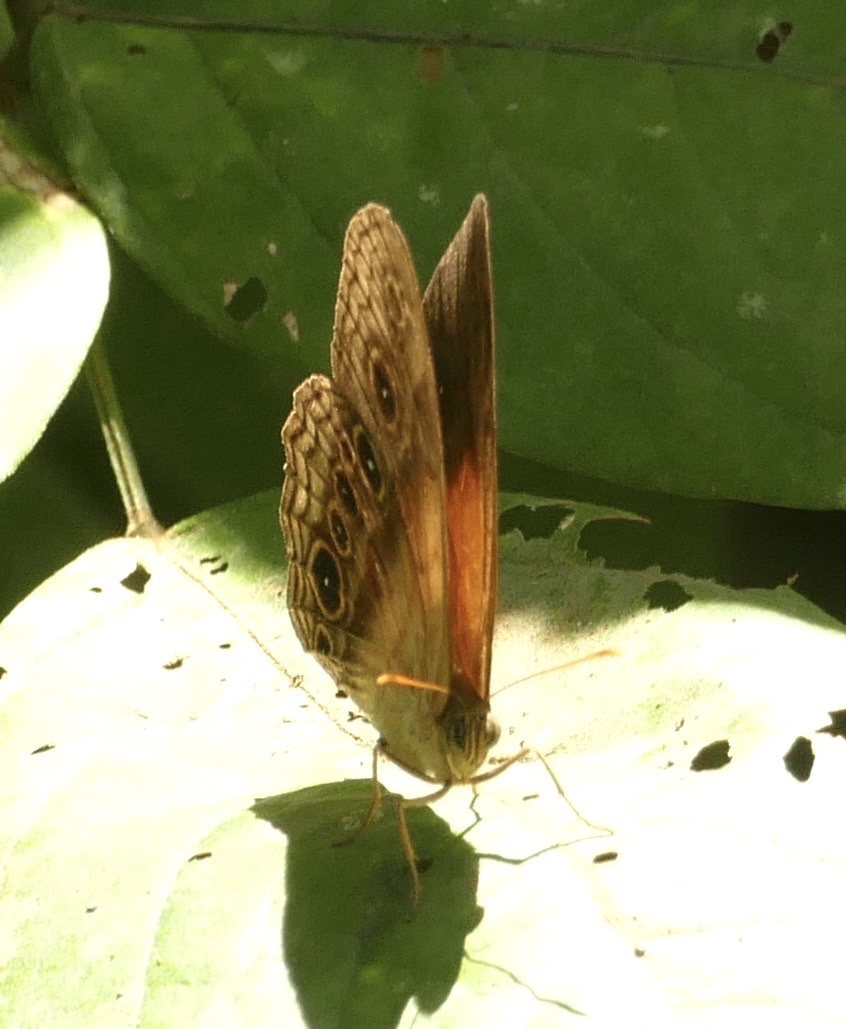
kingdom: Animalia
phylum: Arthropoda
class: Insecta
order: Lepidoptera
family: Nymphalidae
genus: Mycalesis
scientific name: Mycalesis bazochii
